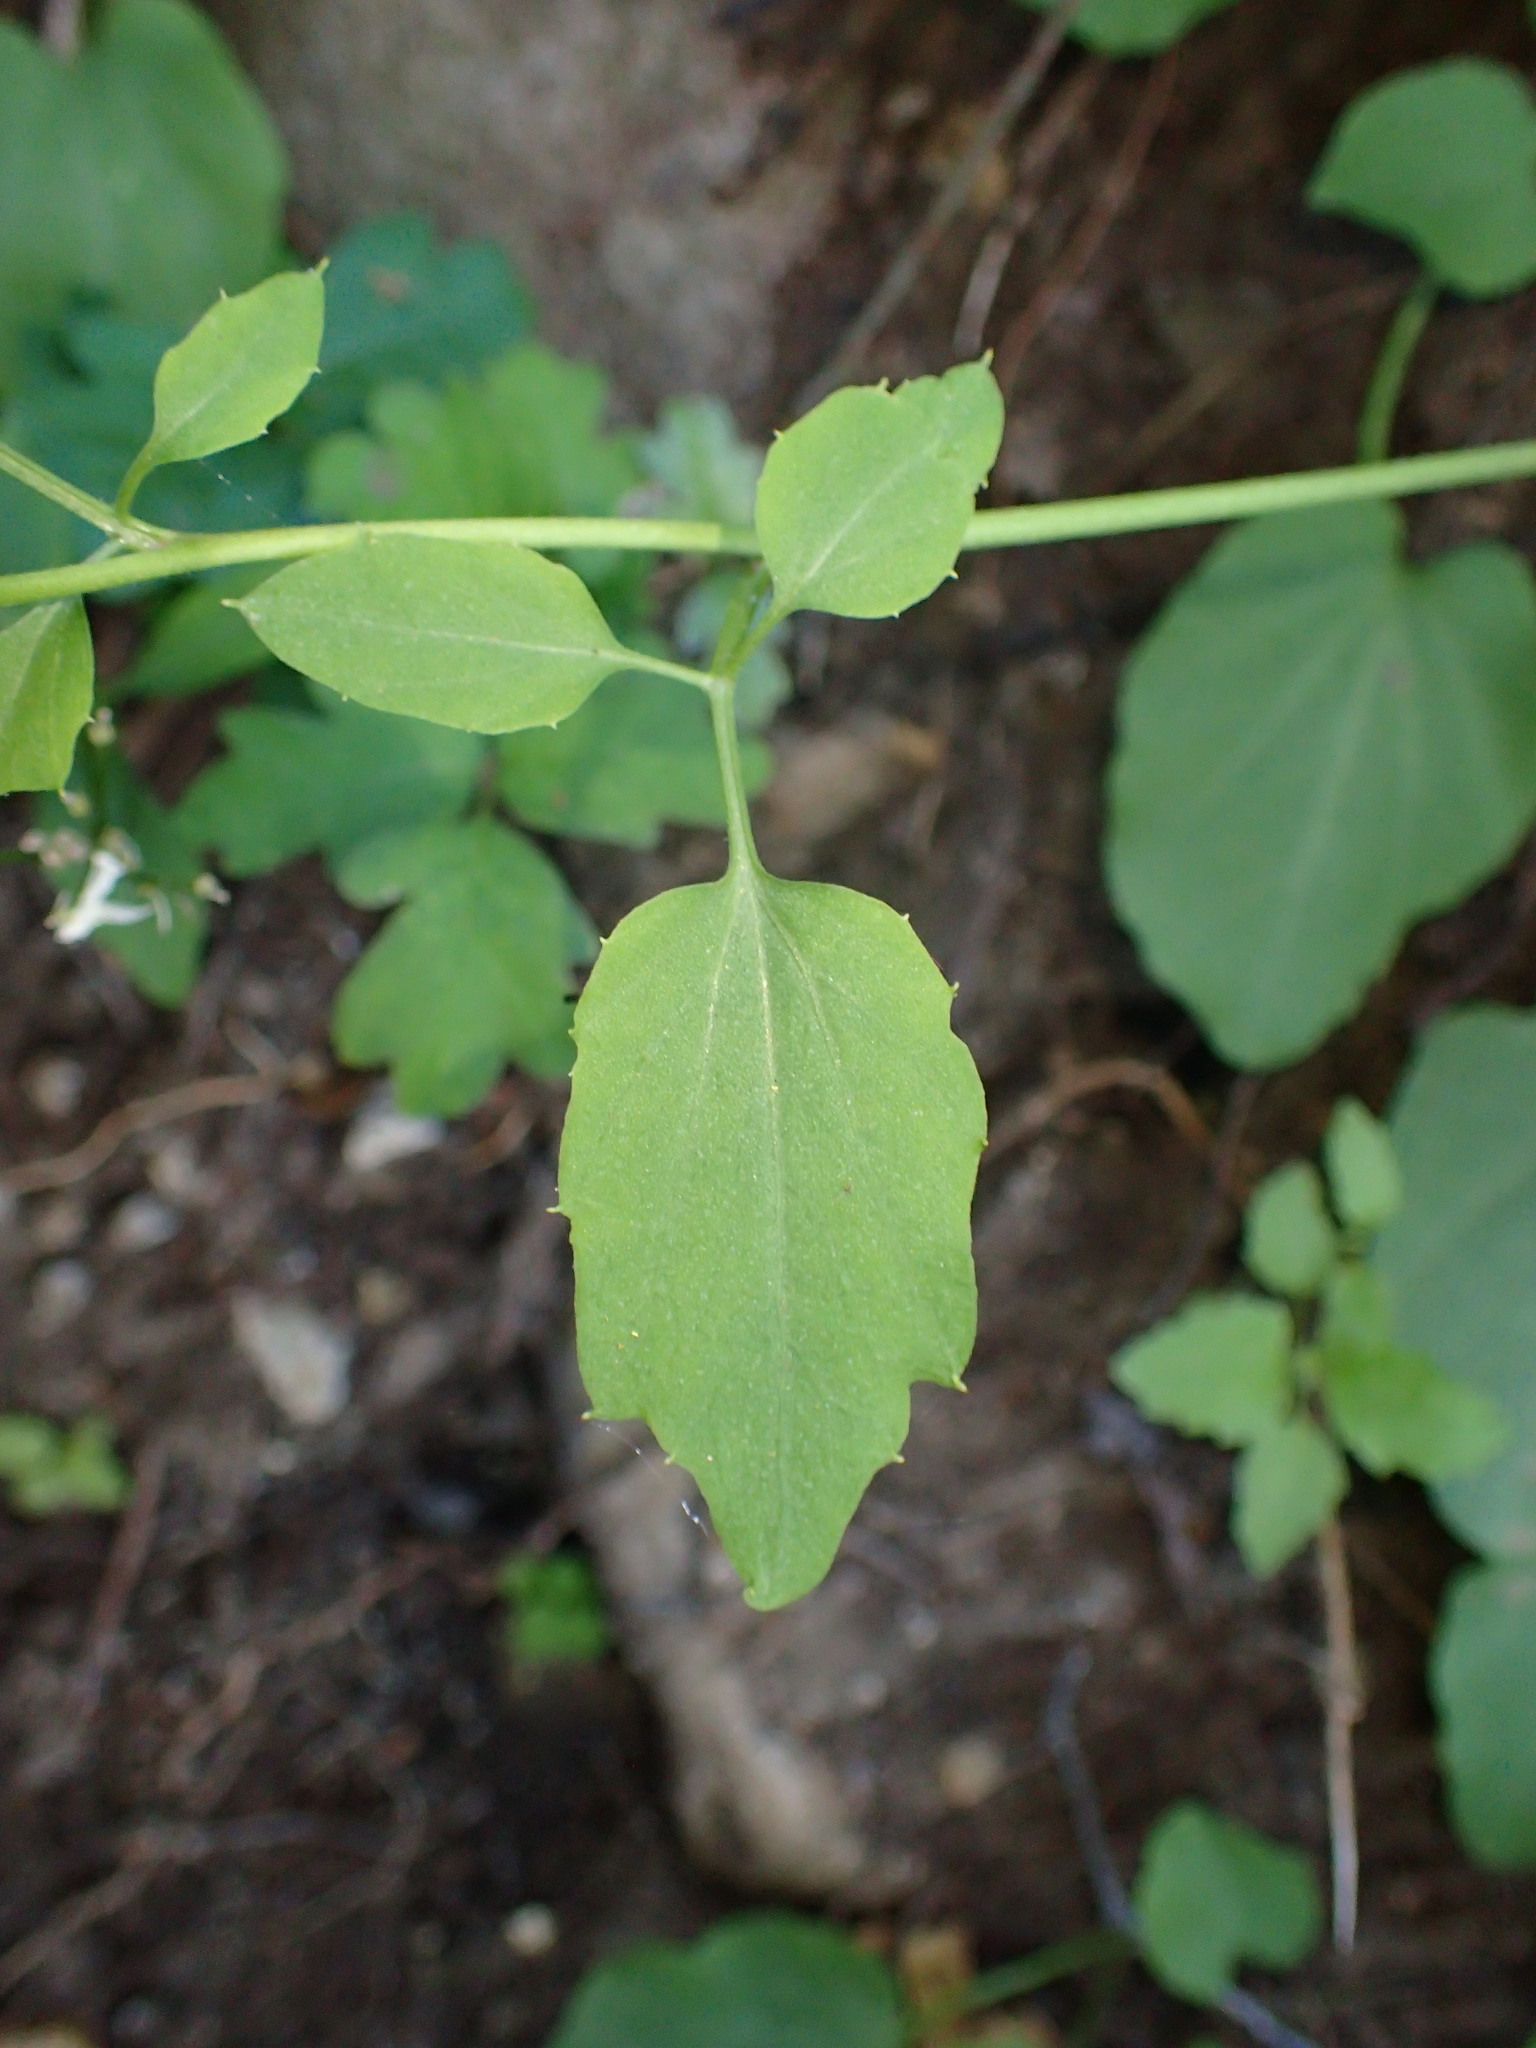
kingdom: Plantae
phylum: Tracheophyta
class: Magnoliopsida
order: Brassicales
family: Brassicaceae
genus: Cardamine
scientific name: Cardamine californica
